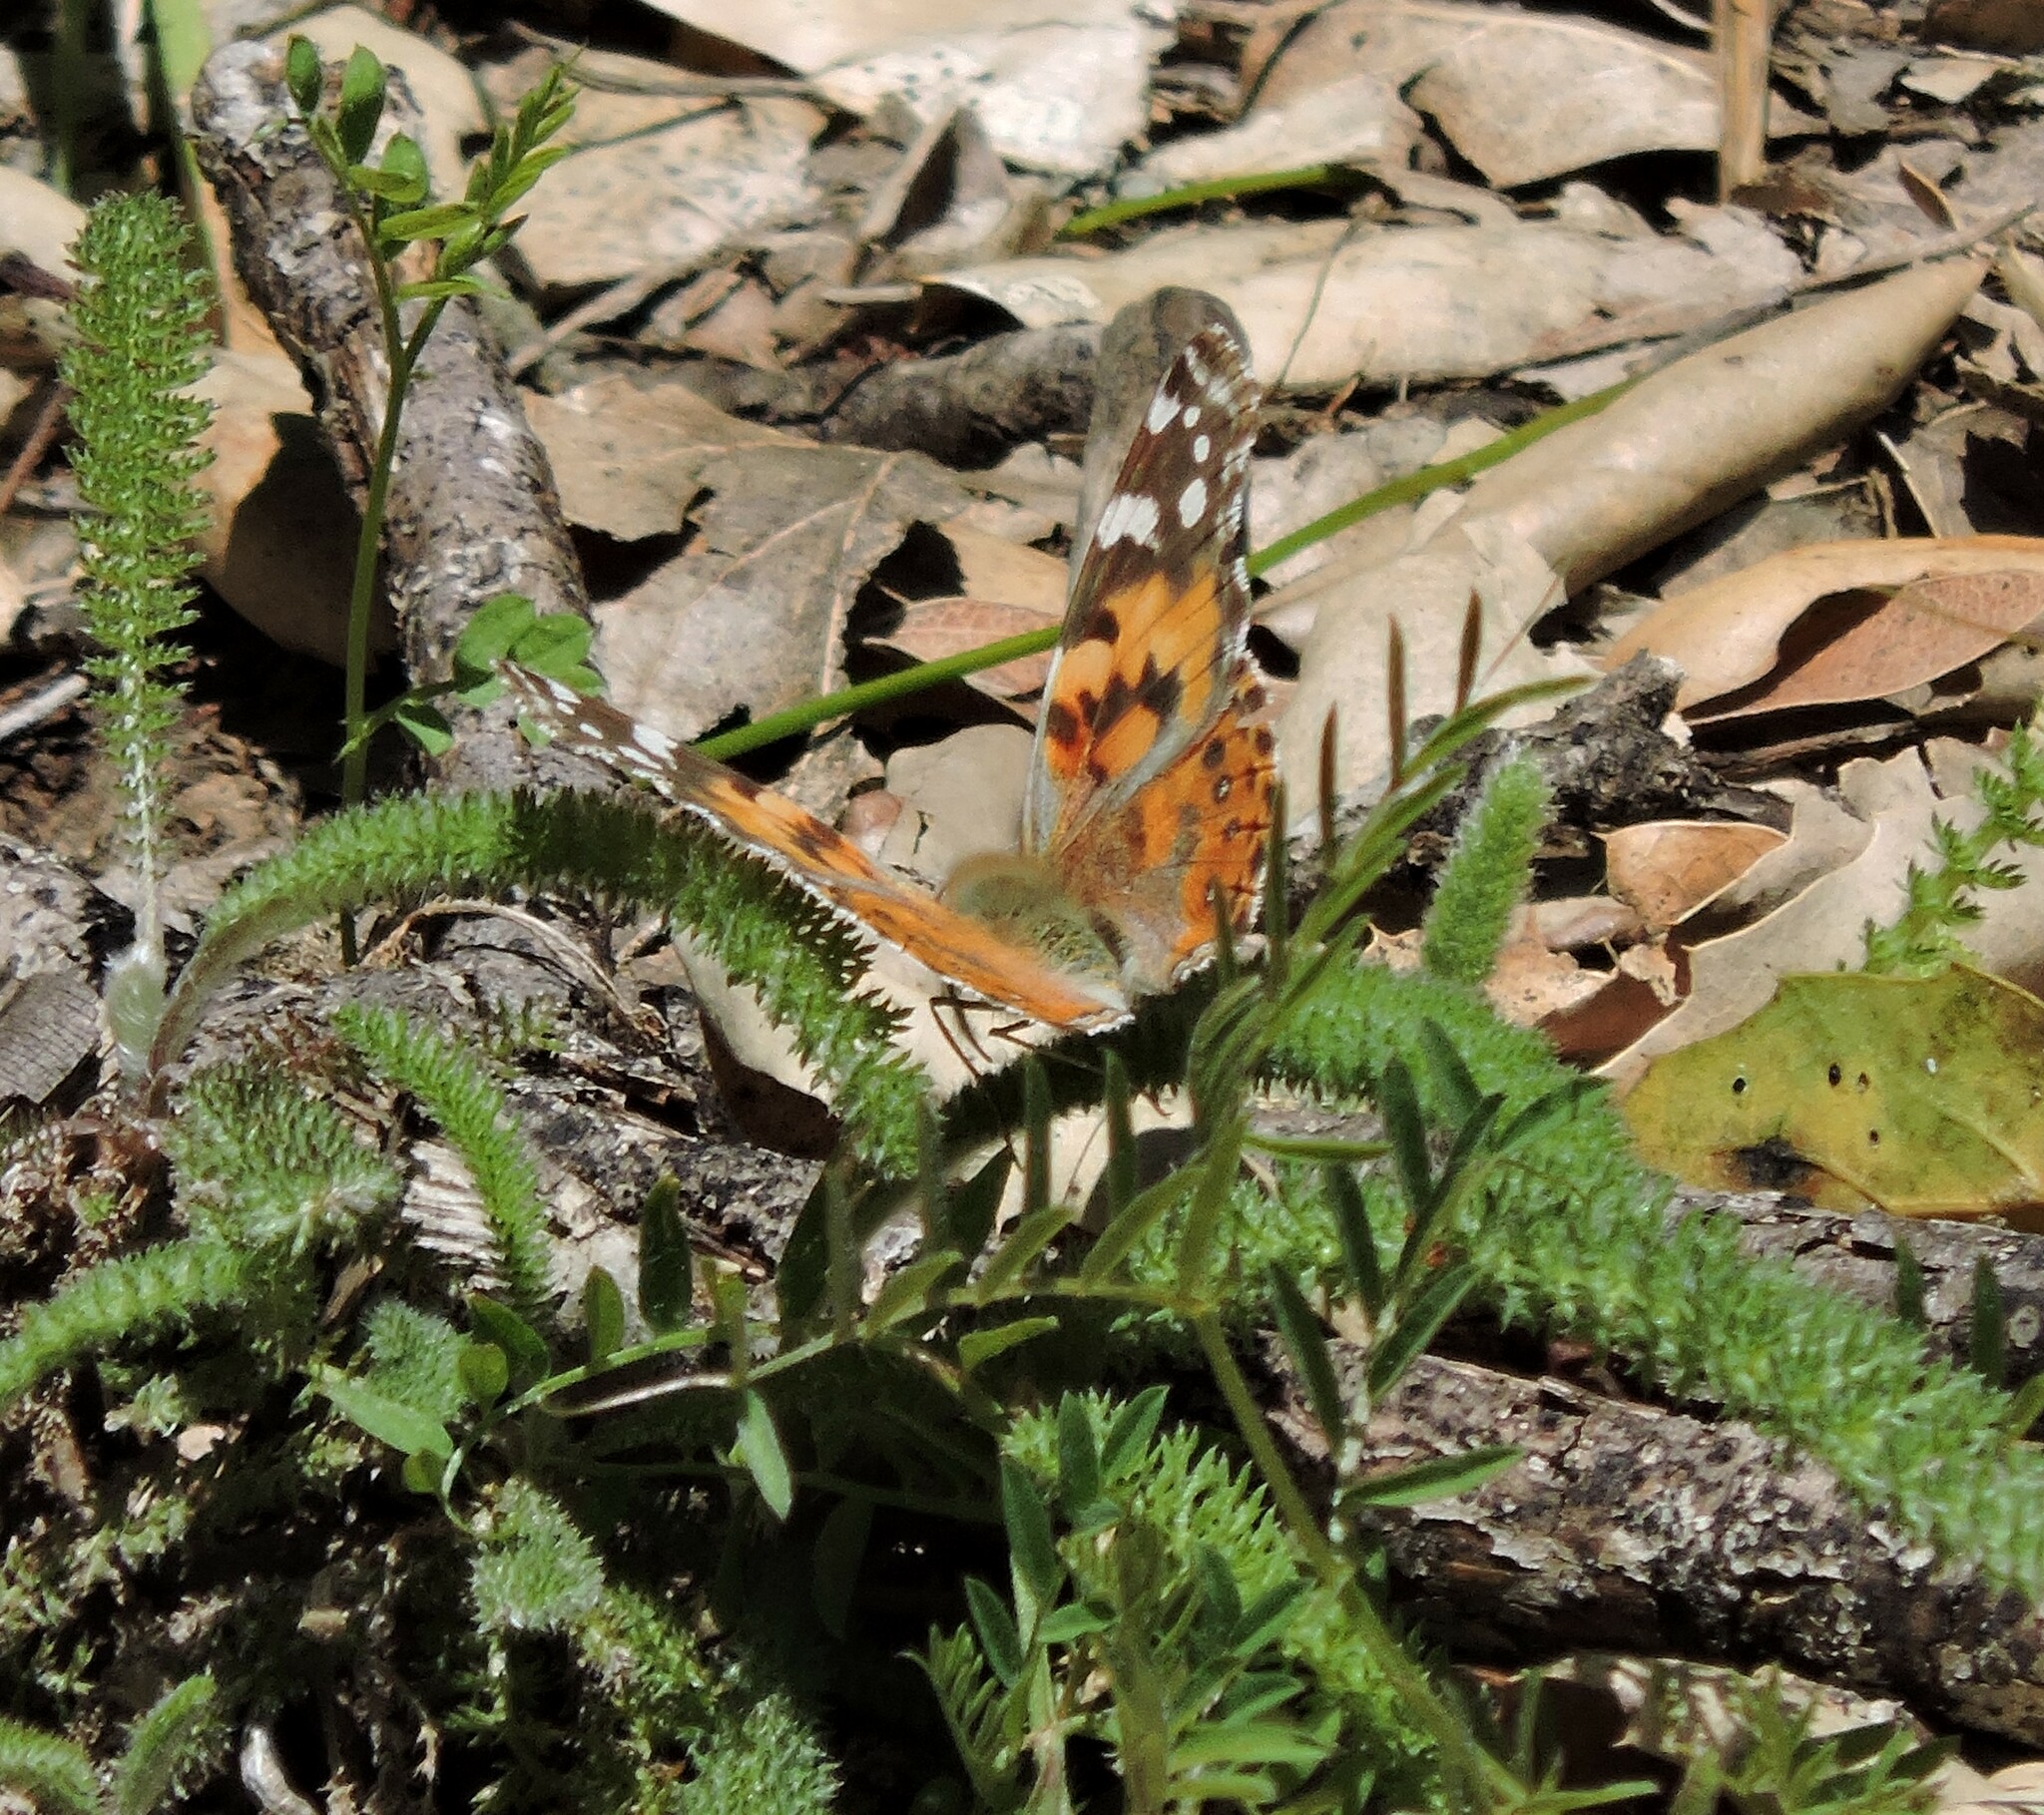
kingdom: Animalia
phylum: Arthropoda
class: Insecta
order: Lepidoptera
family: Nymphalidae
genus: Vanessa
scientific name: Vanessa cardui
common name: Painted lady
